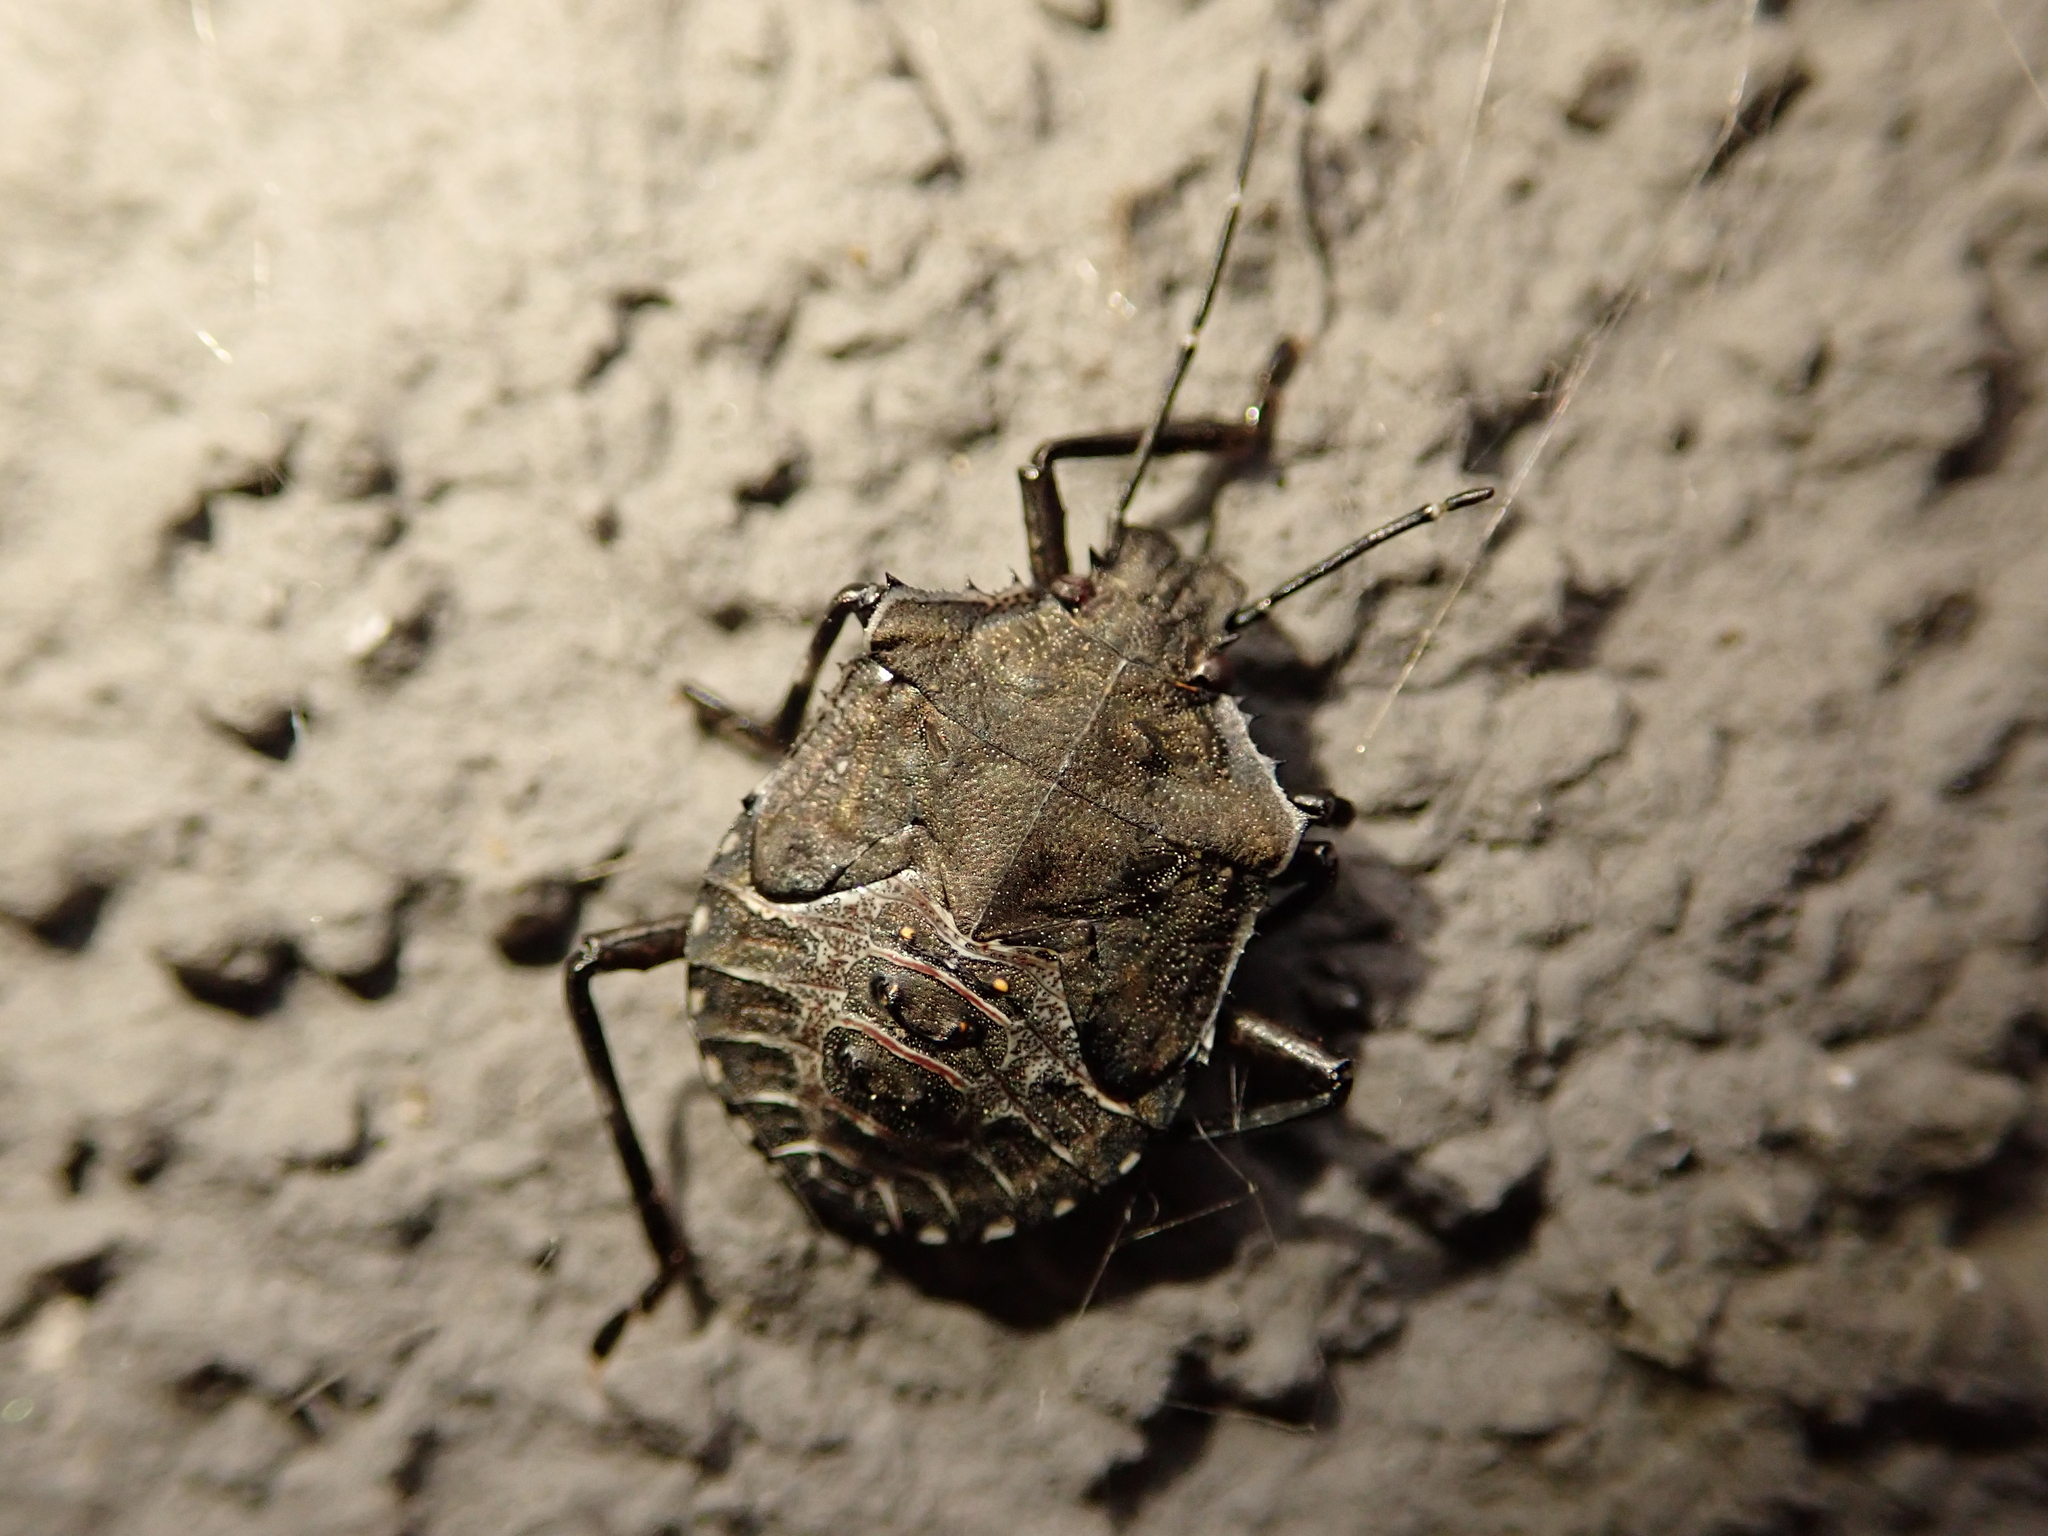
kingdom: Animalia
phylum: Arthropoda
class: Insecta
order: Hemiptera
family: Pentatomidae
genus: Halyomorpha
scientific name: Halyomorpha halys
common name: Brown marmorated stink bug
